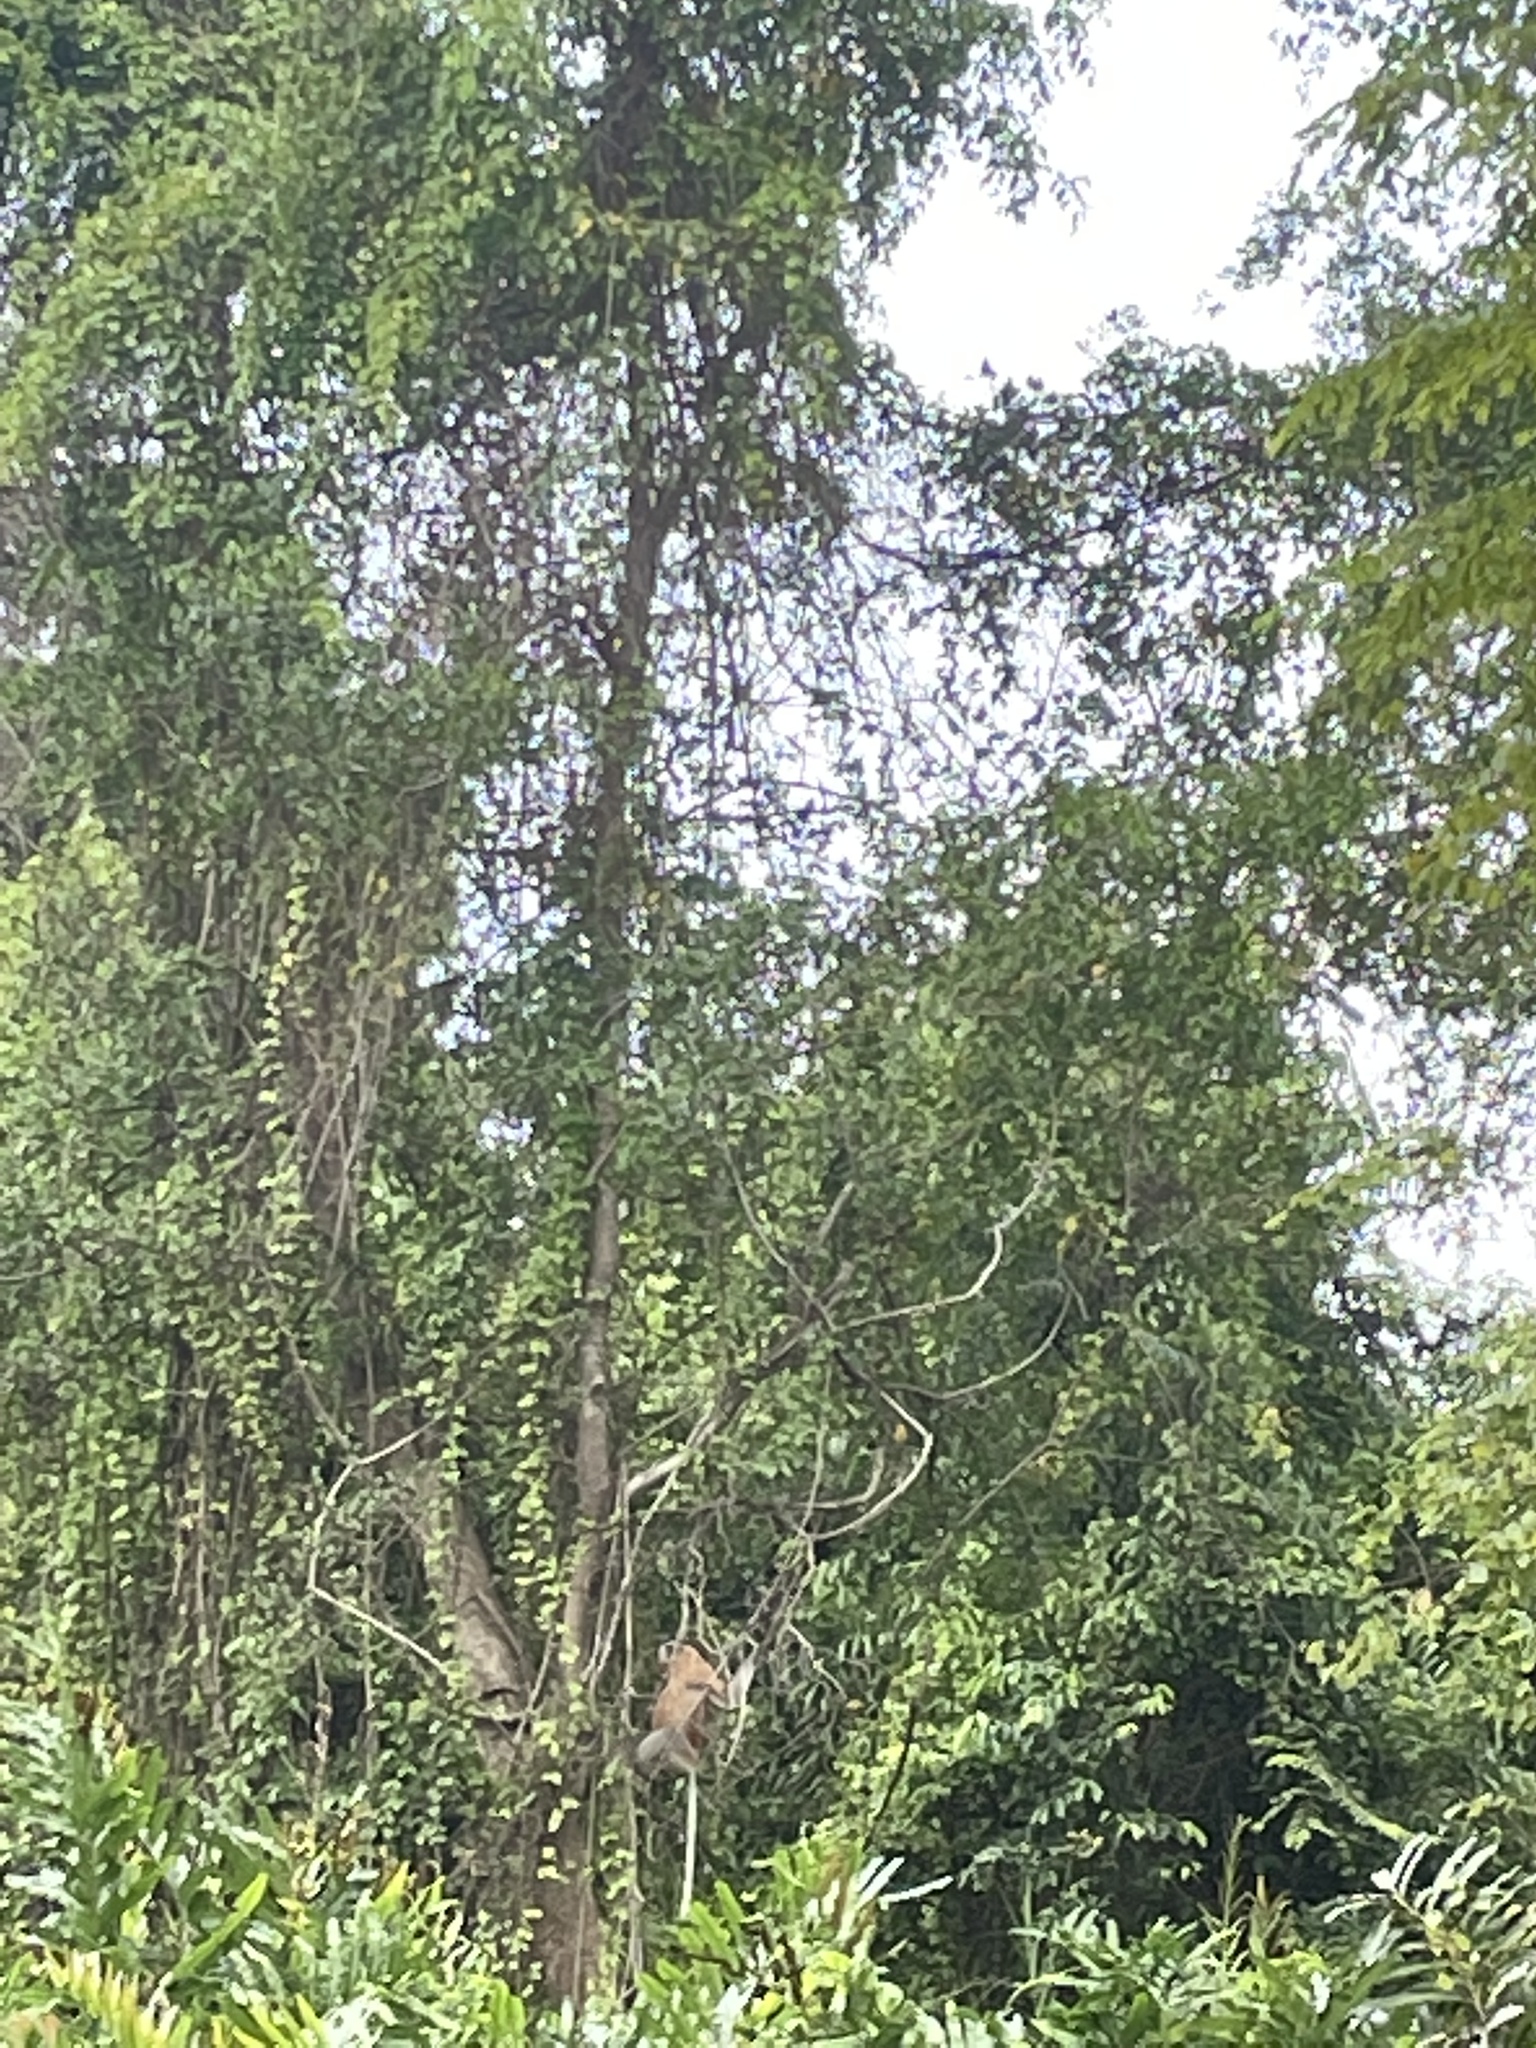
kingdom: Animalia
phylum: Chordata
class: Mammalia
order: Primates
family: Cercopithecidae
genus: Nasalis
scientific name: Nasalis larvatus
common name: Proboscis monkey
